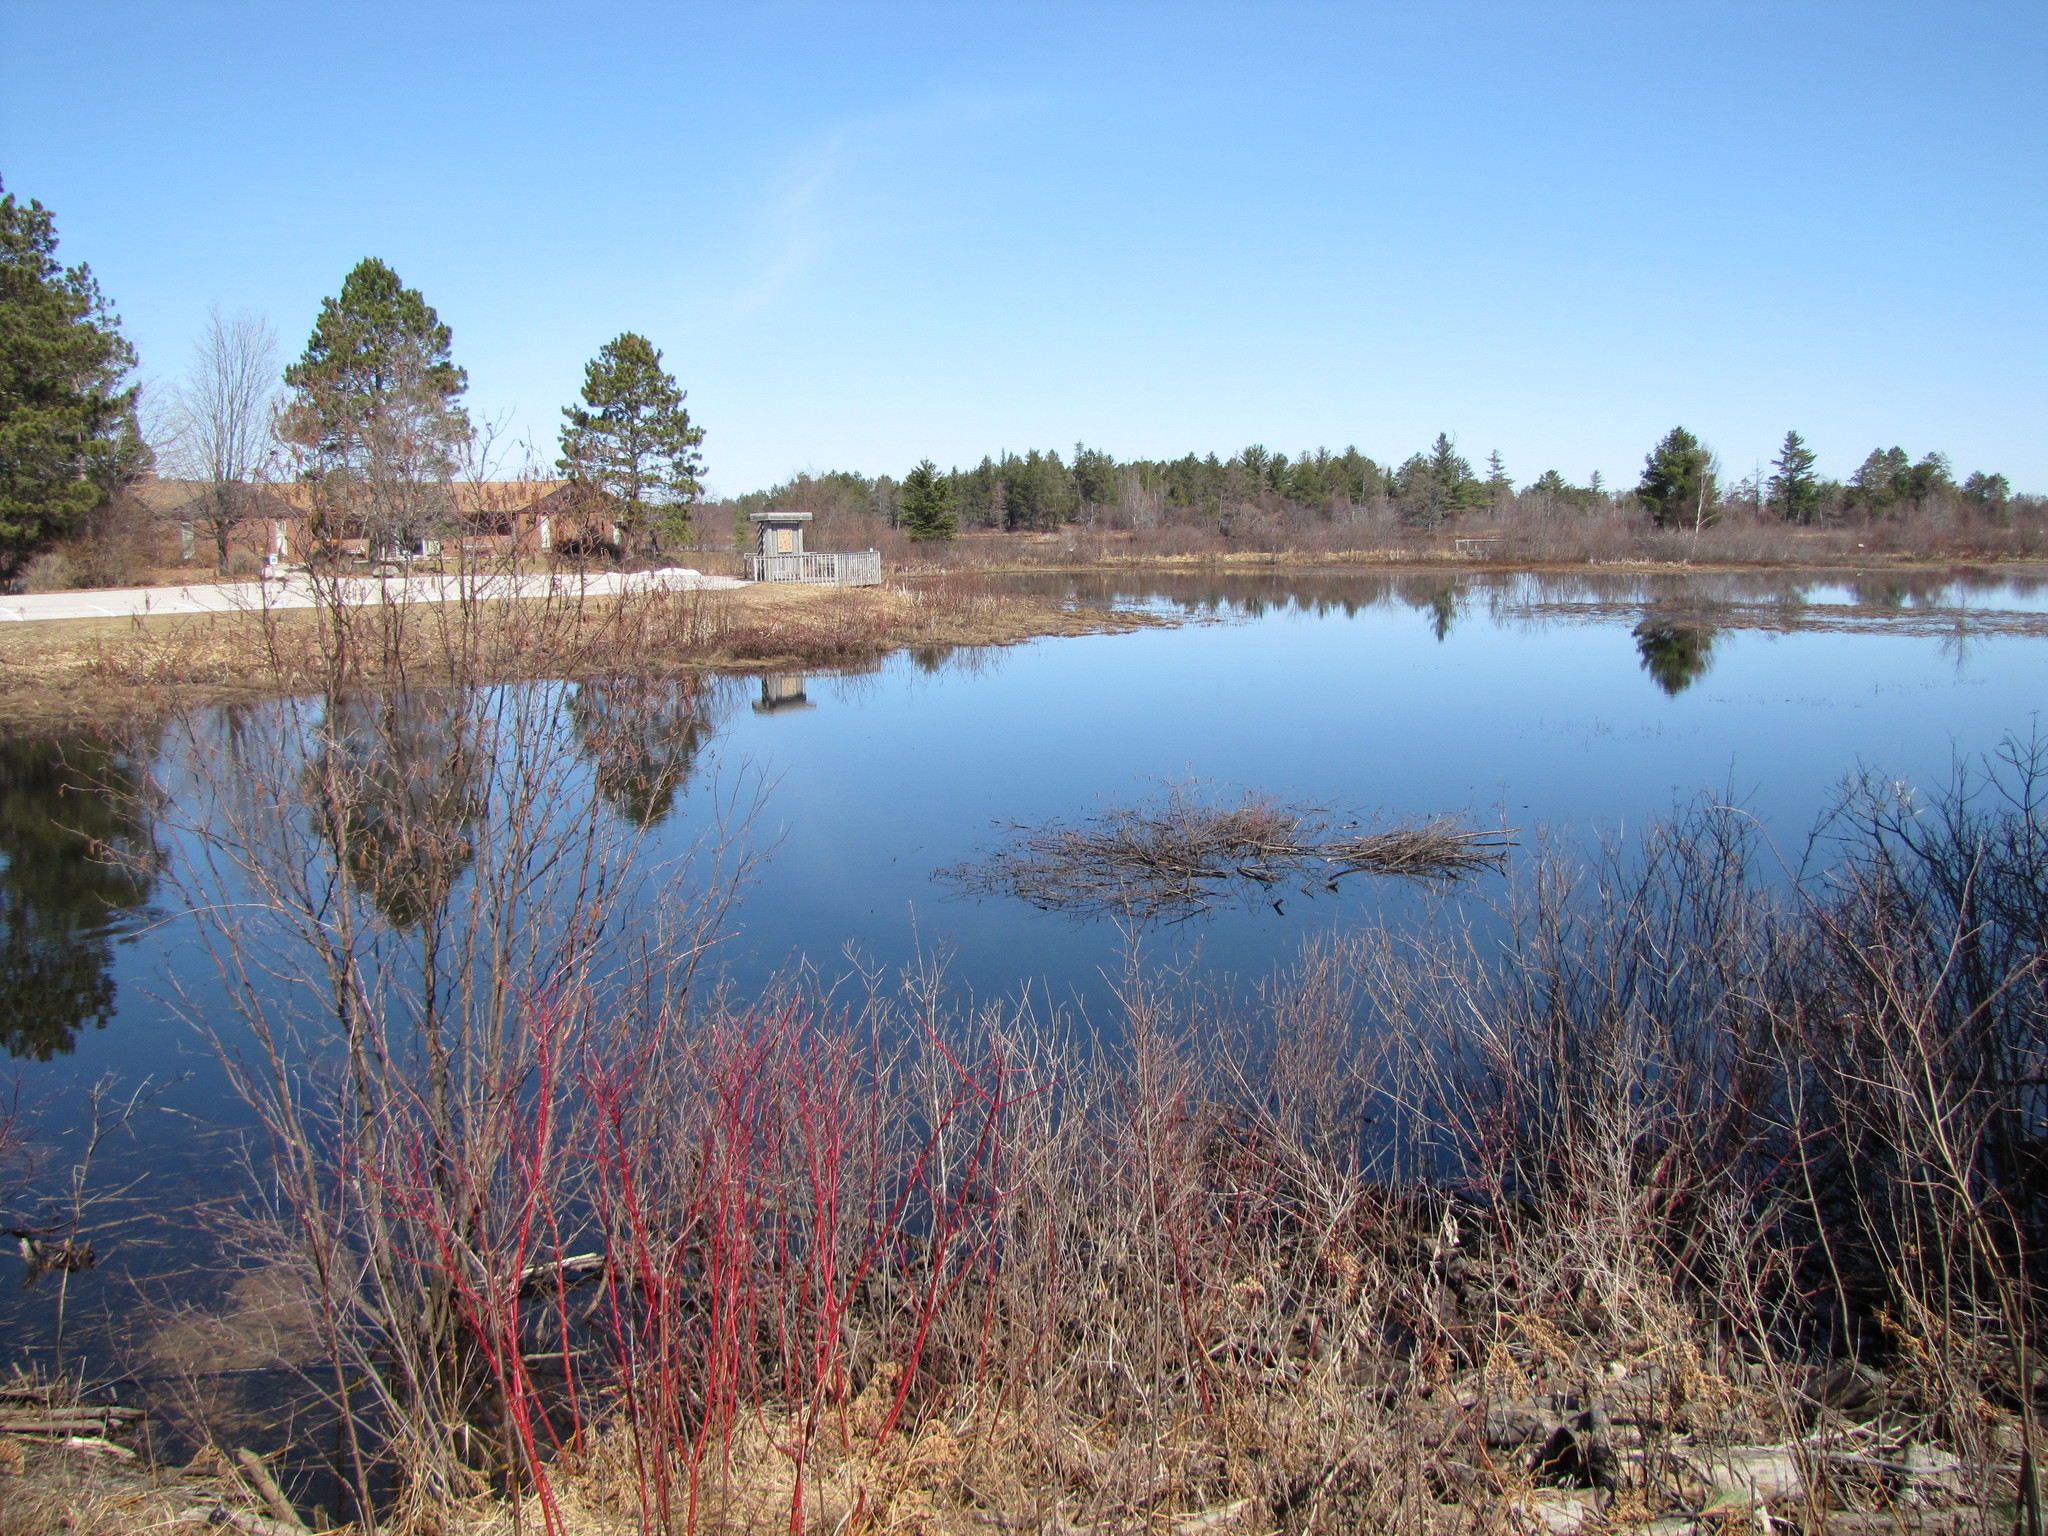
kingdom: Animalia
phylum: Chordata
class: Mammalia
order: Rodentia
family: Castoridae
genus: Castor
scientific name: Castor canadensis
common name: American beaver
